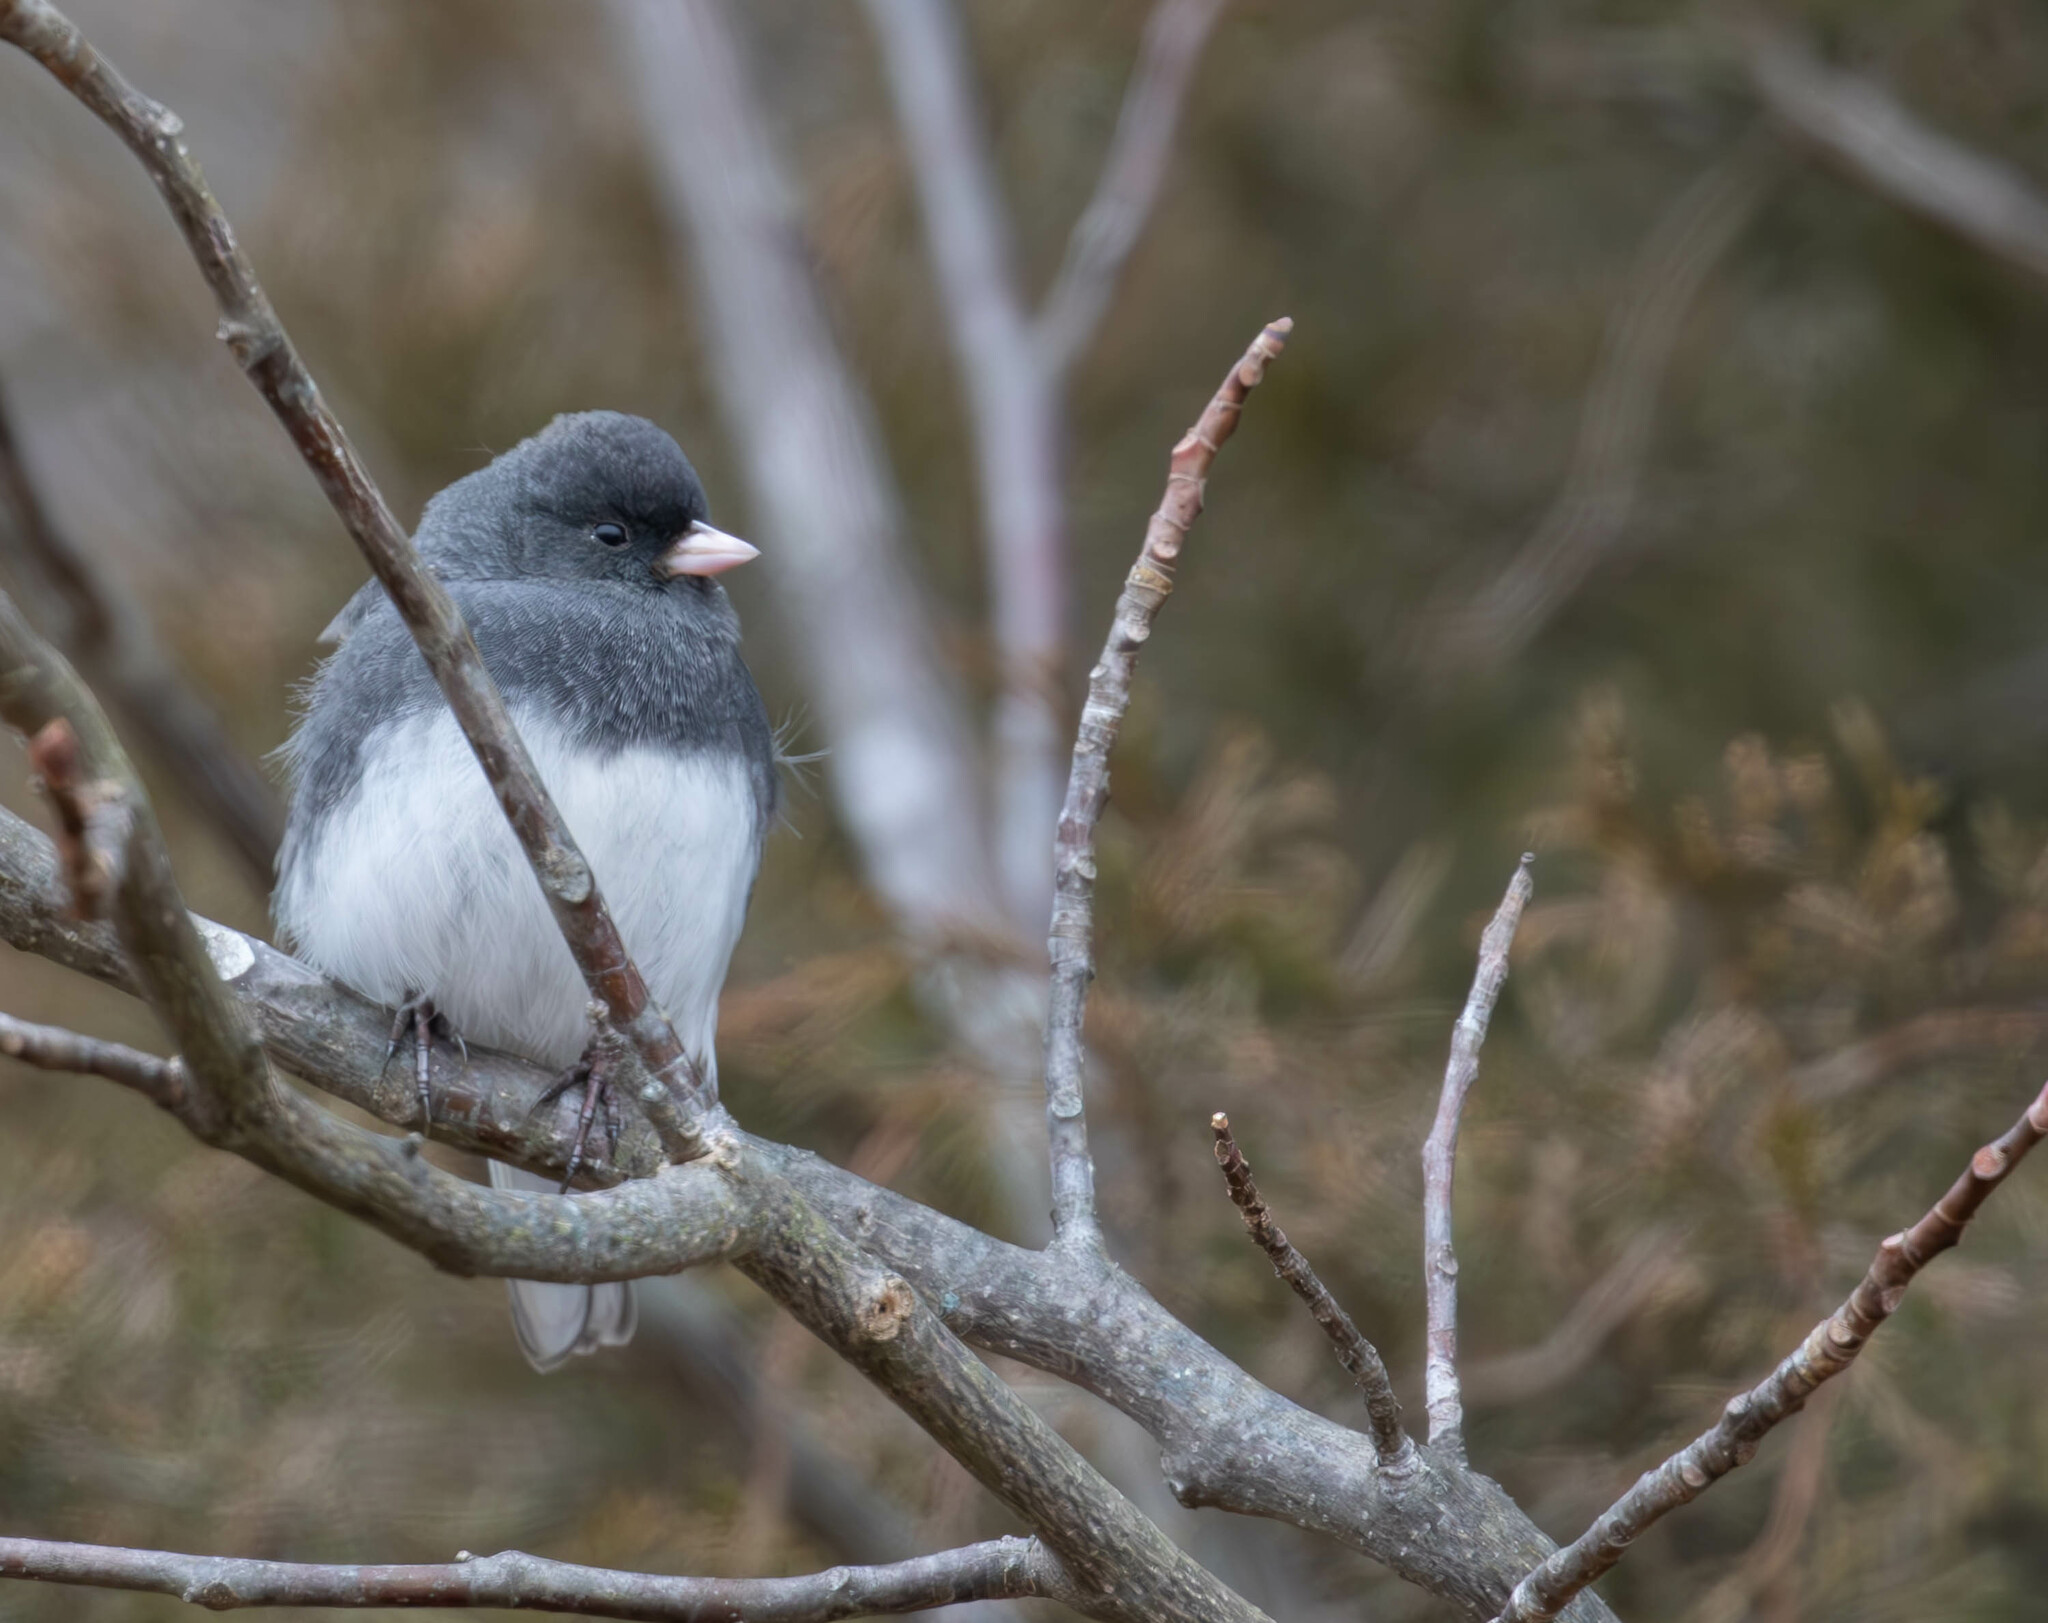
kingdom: Animalia
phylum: Chordata
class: Aves
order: Passeriformes
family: Passerellidae
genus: Junco
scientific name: Junco hyemalis
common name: Dark-eyed junco
